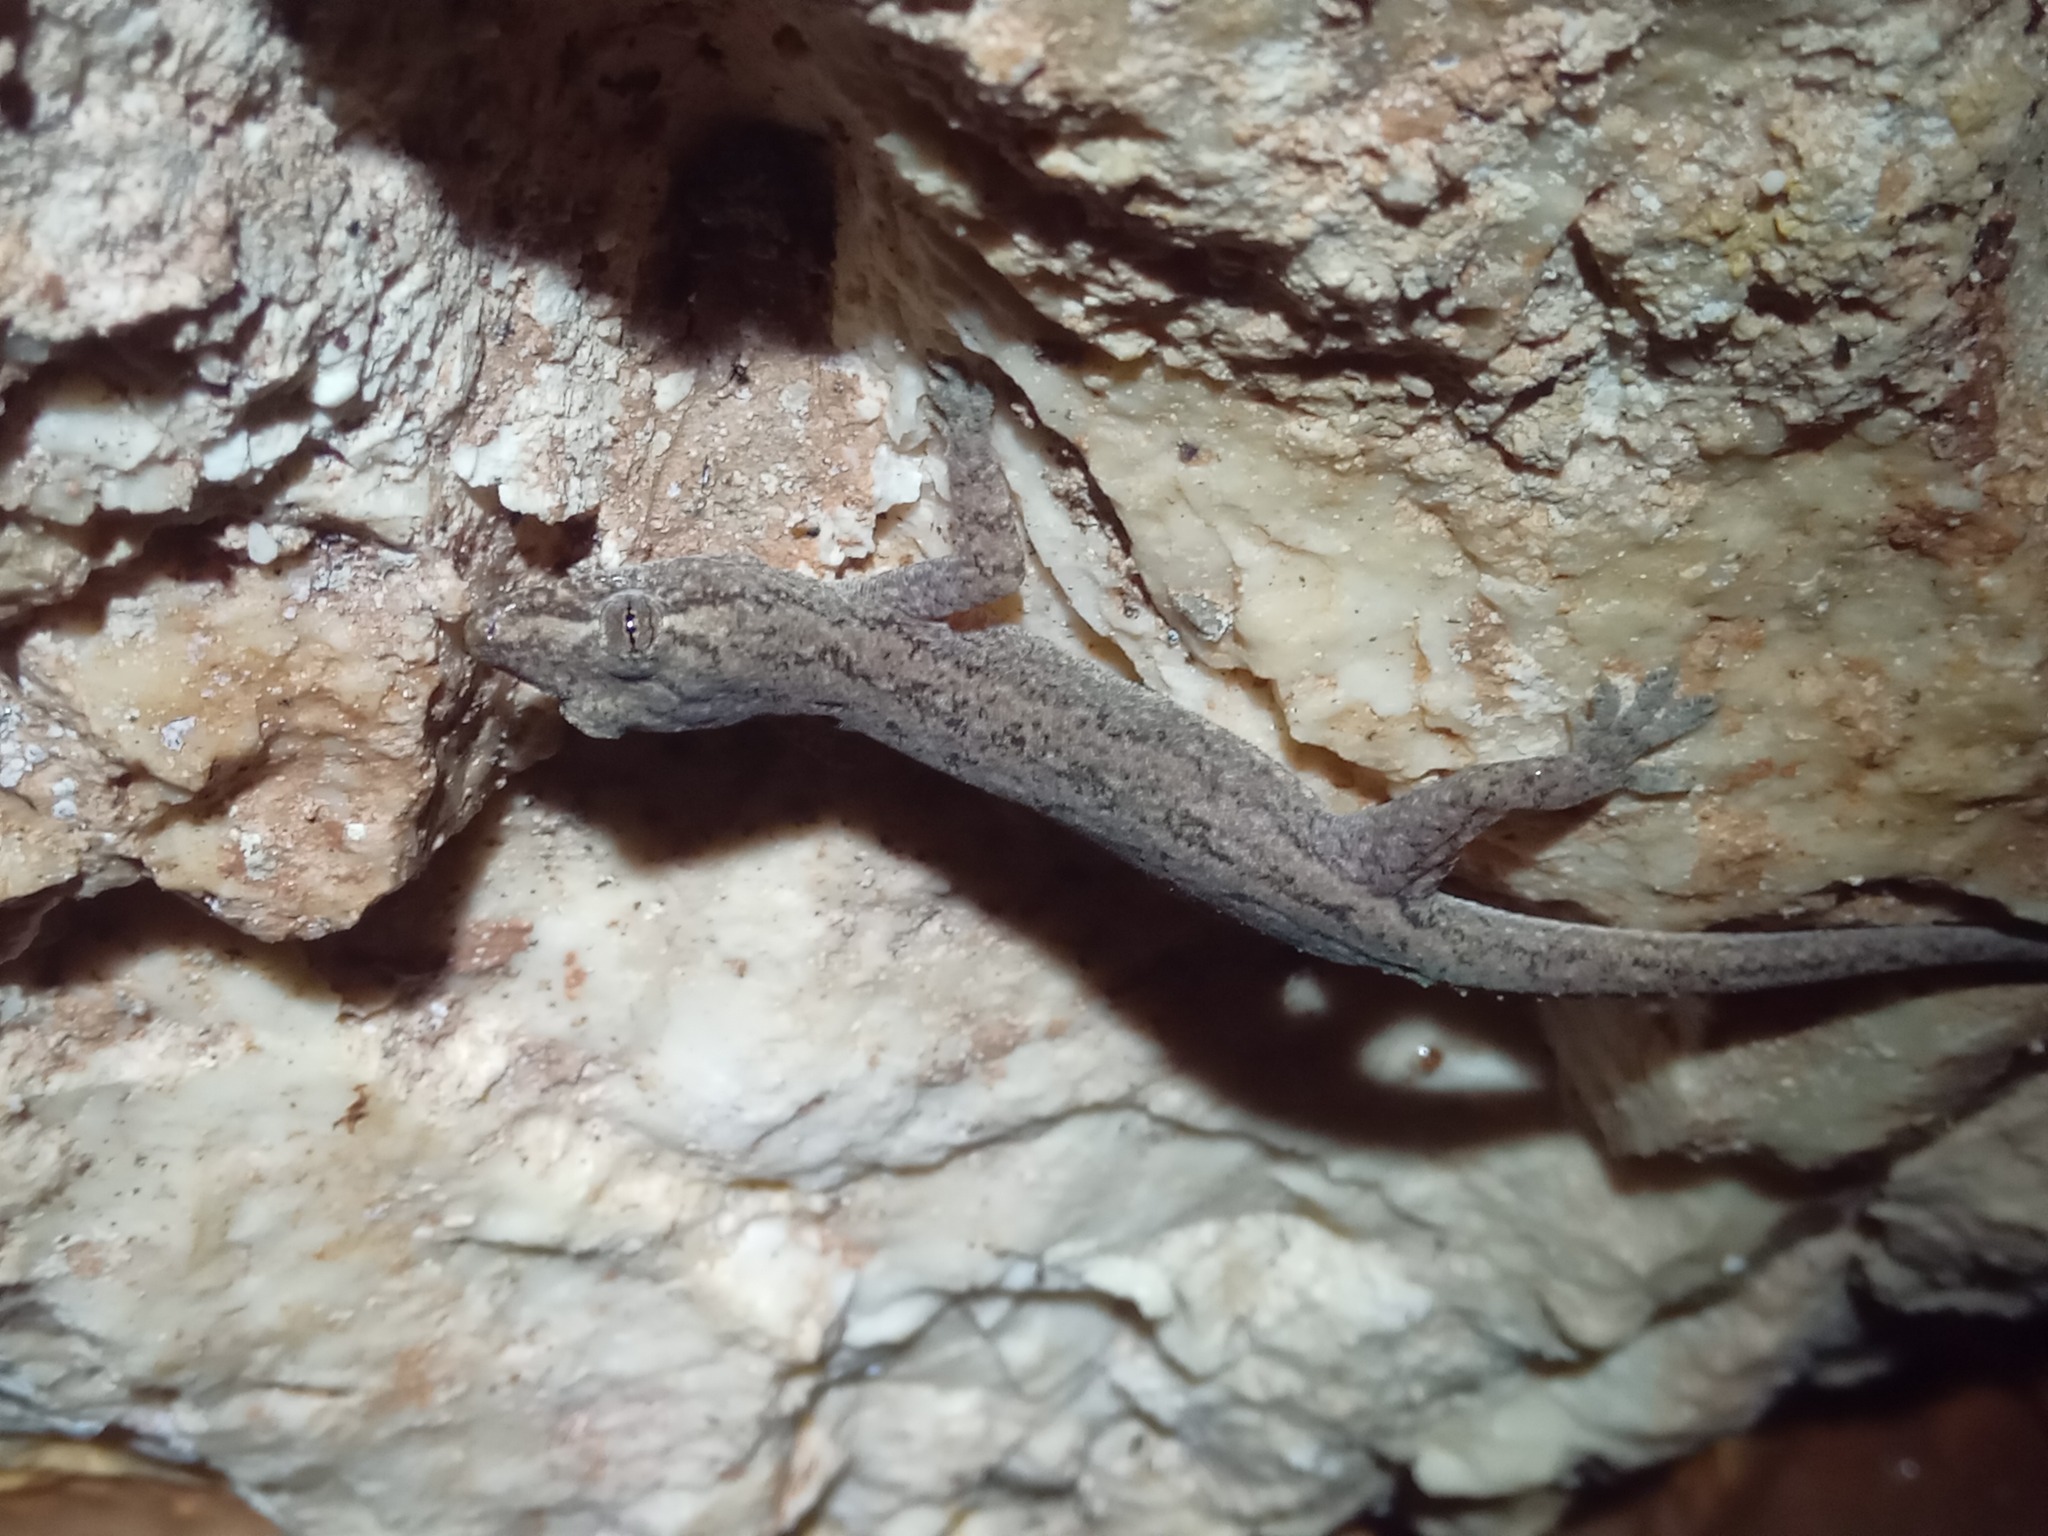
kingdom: Animalia
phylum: Chordata
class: Squamata
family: Gekkonidae
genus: Hemidactylus
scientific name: Hemidactylus frenatus
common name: Common house gecko
